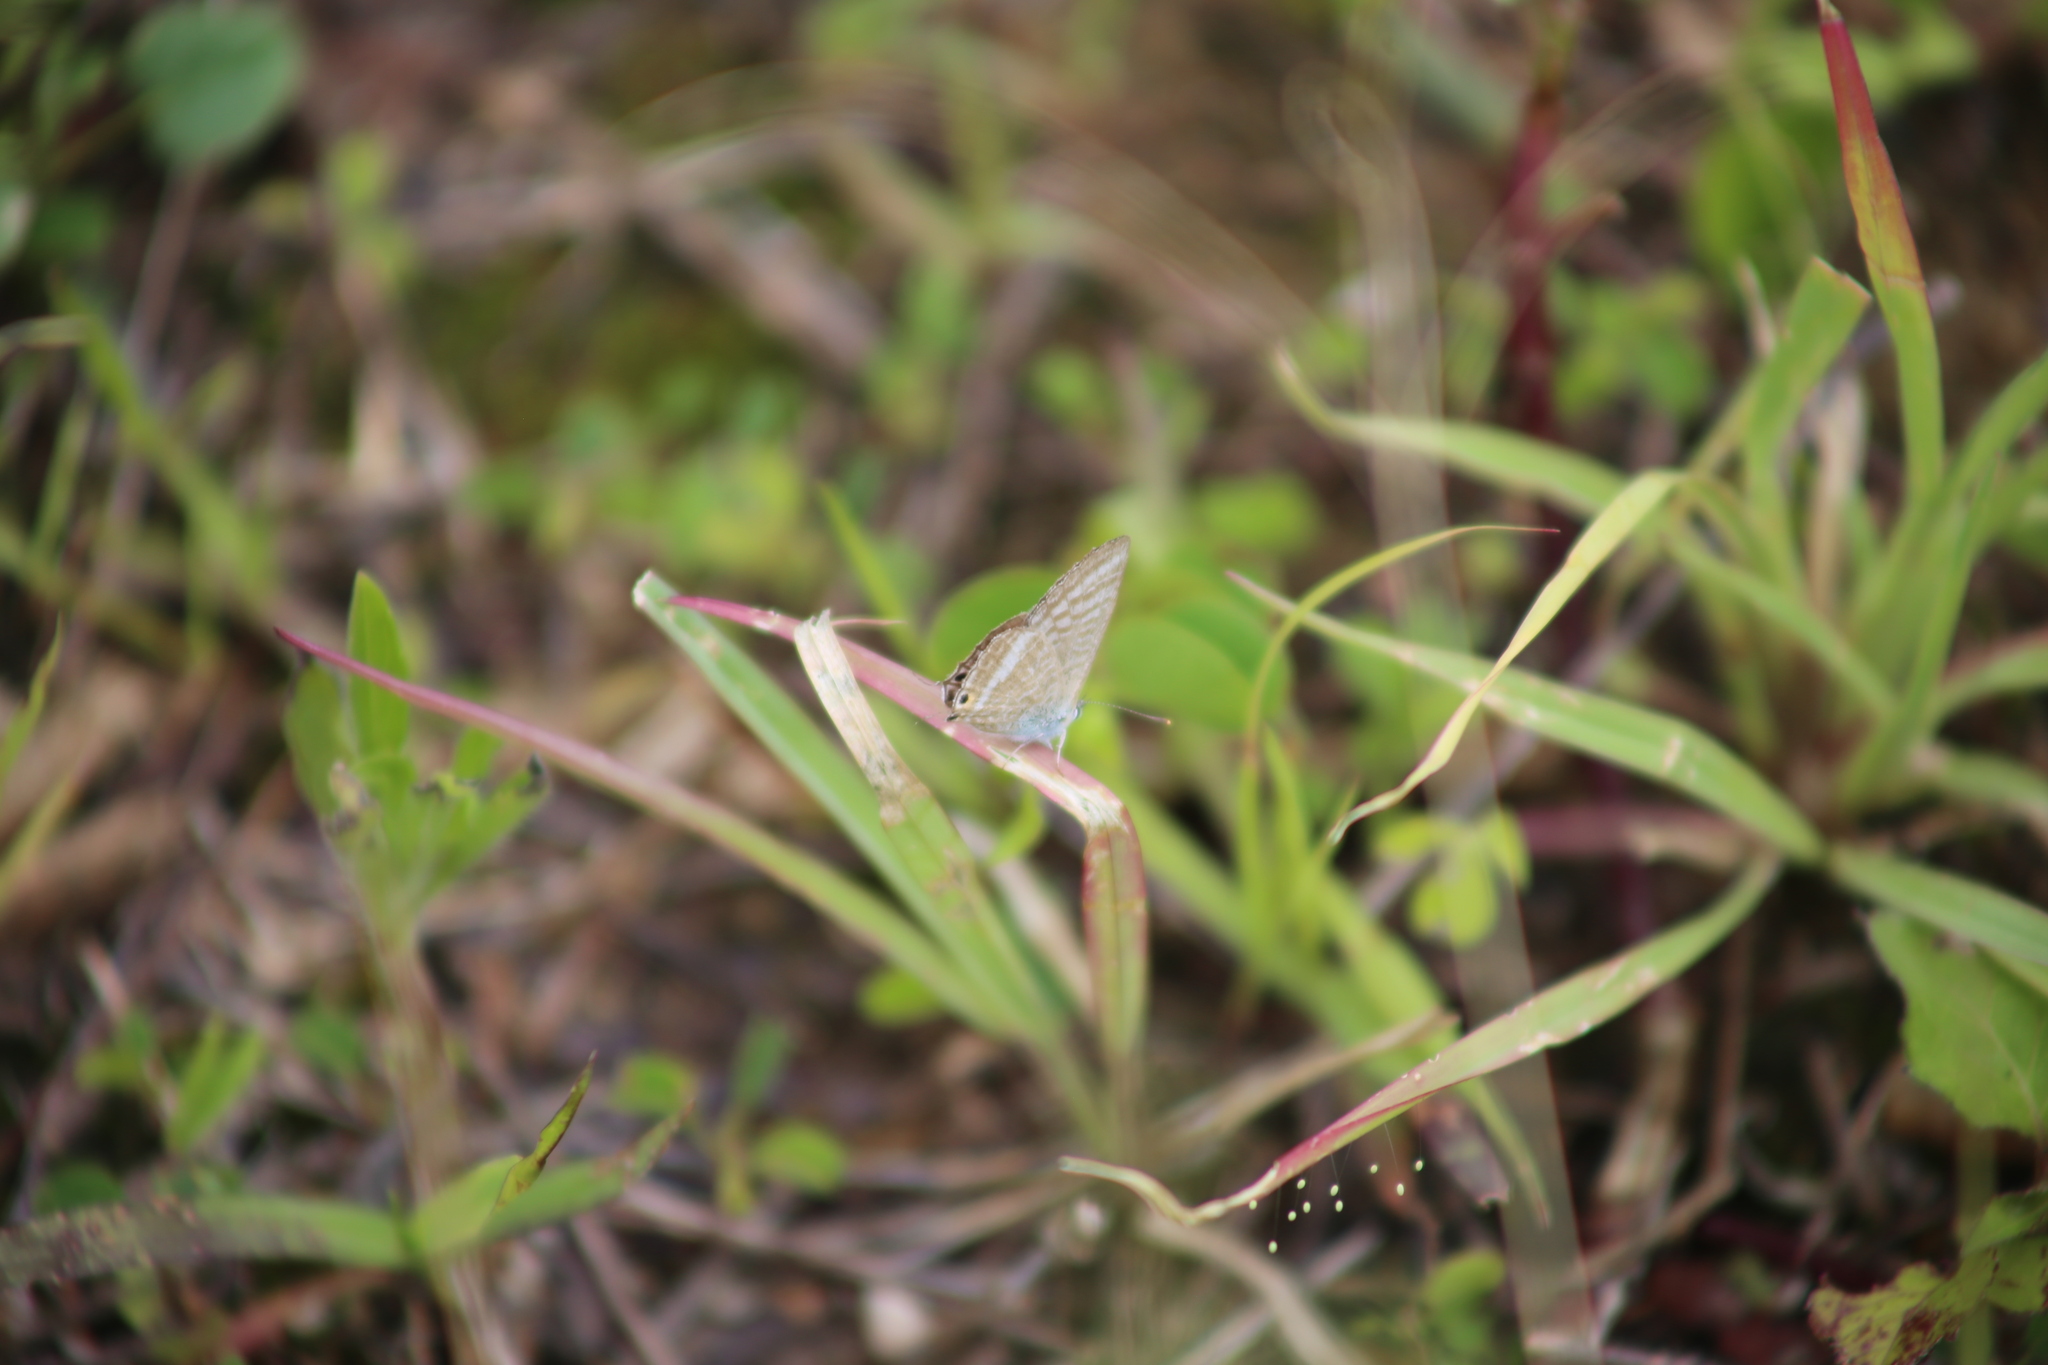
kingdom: Animalia
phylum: Arthropoda
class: Insecta
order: Lepidoptera
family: Lycaenidae
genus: Lampides
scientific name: Lampides boeticus
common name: Long-tailed blue
